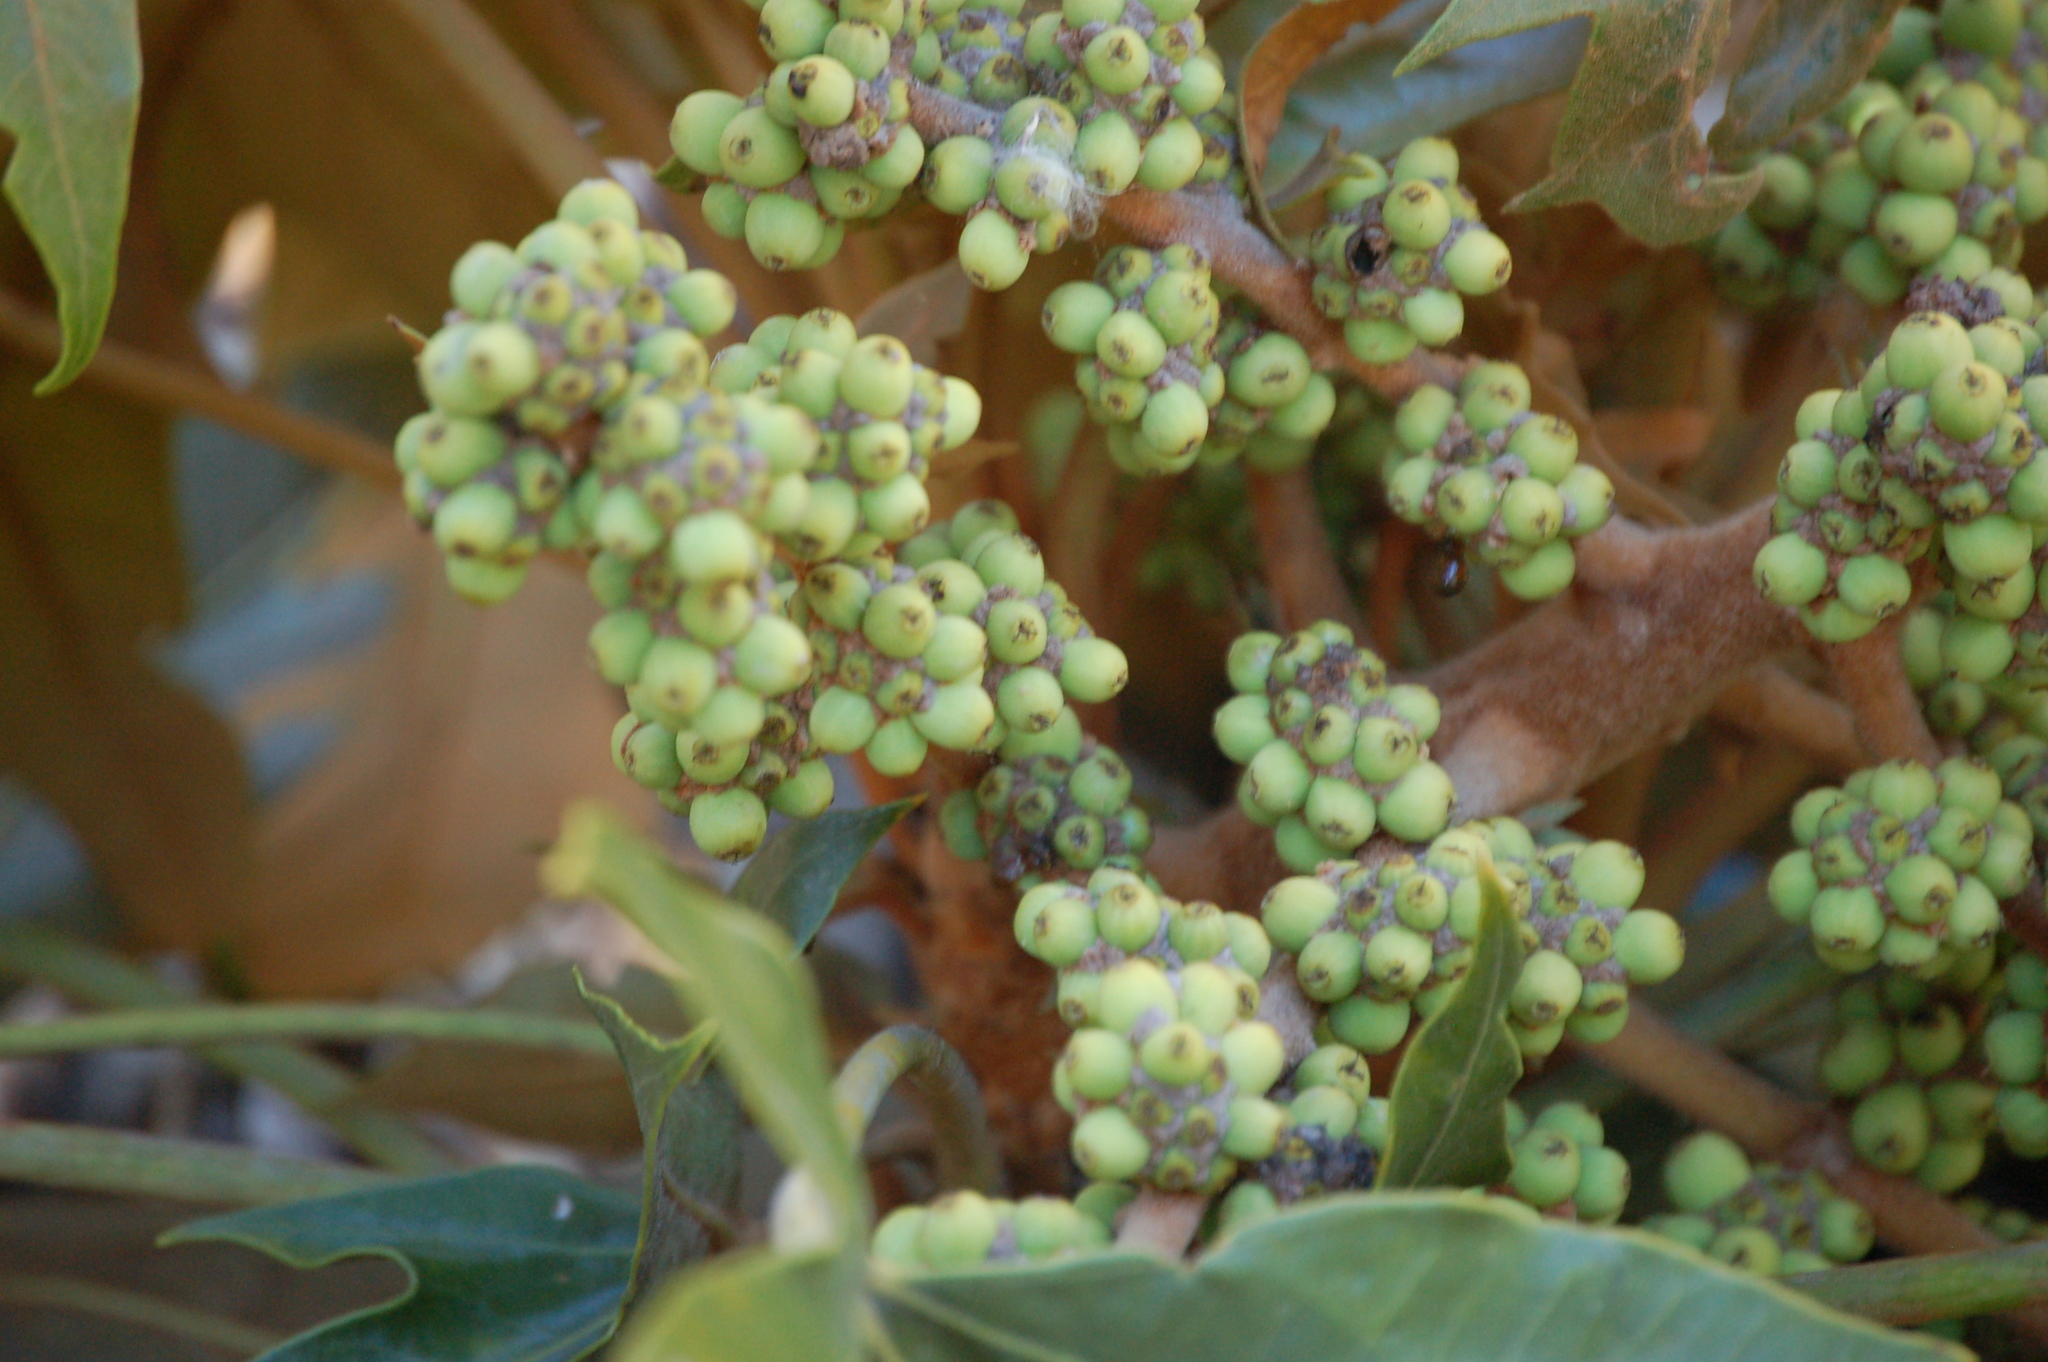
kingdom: Plantae
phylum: Tracheophyta
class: Magnoliopsida
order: Apiales
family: Araliaceae
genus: Oreopanax
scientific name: Oreopanax geminatus
